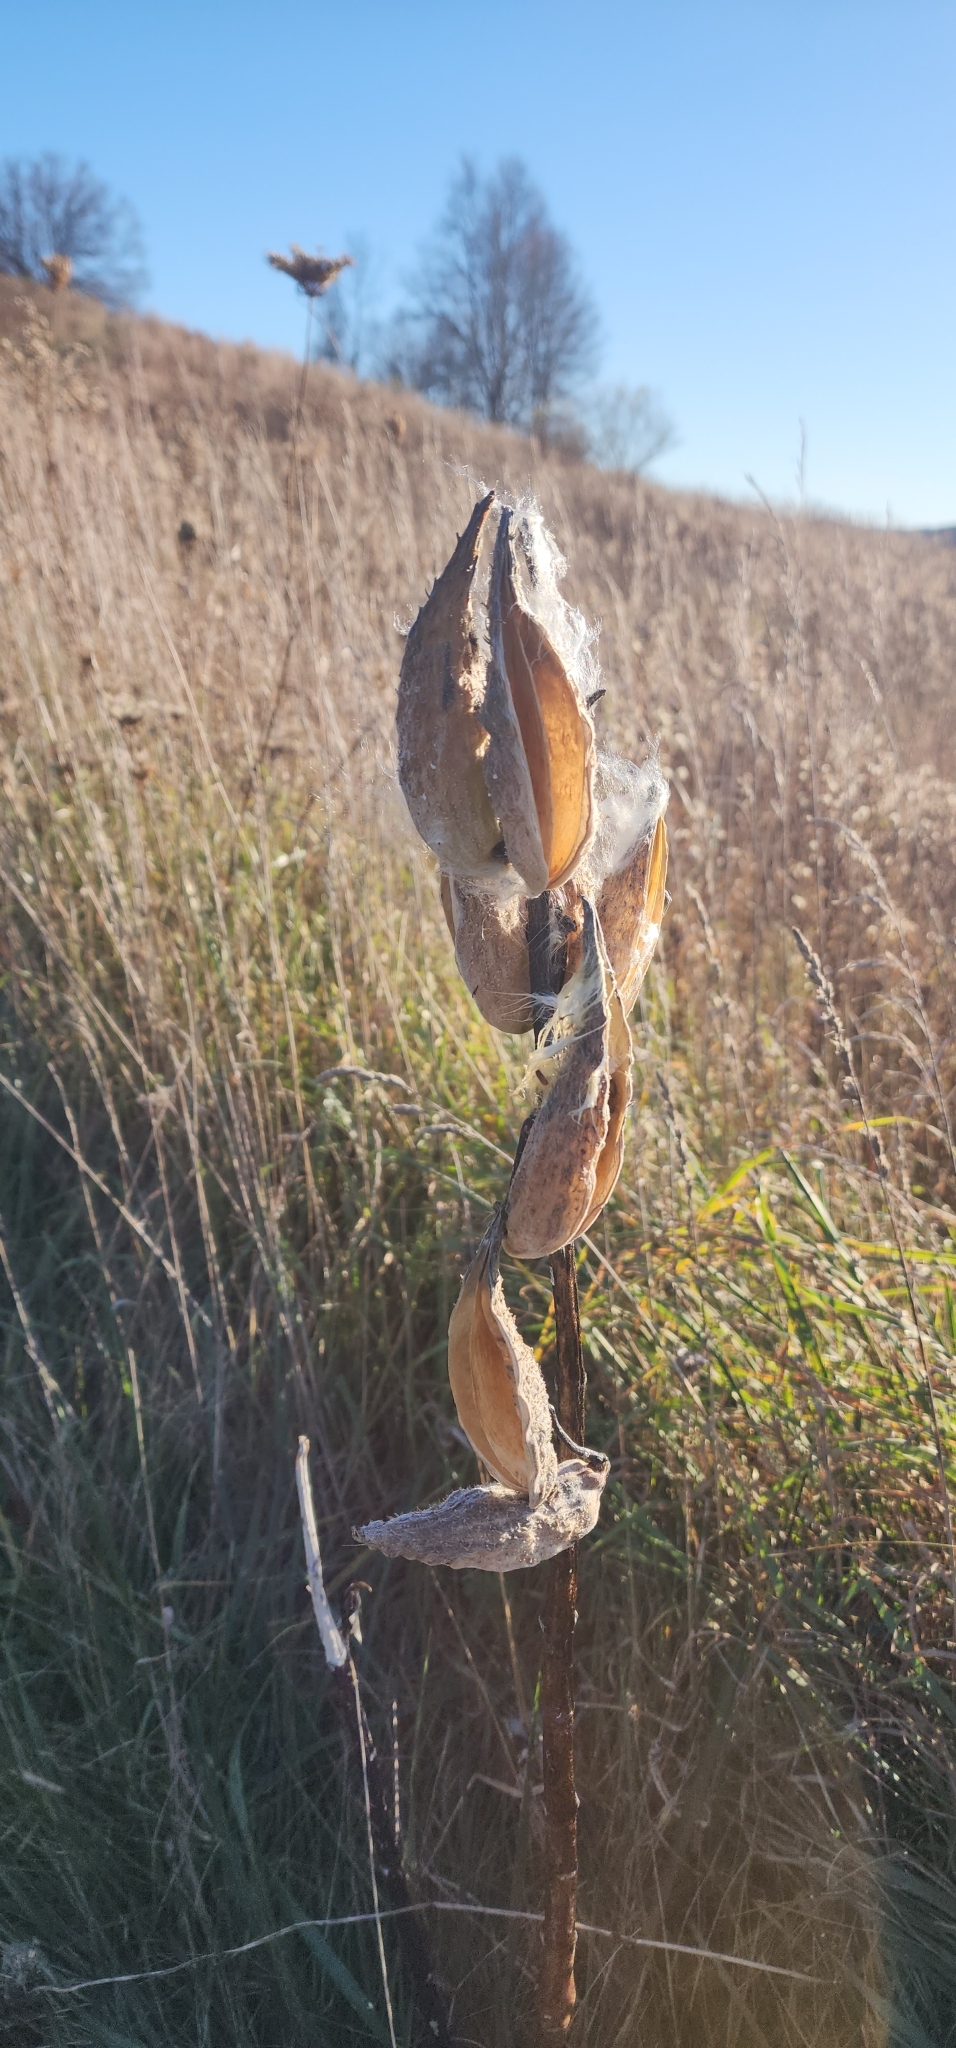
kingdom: Plantae
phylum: Tracheophyta
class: Magnoliopsida
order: Gentianales
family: Apocynaceae
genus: Asclepias
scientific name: Asclepias syriaca
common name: Common milkweed
